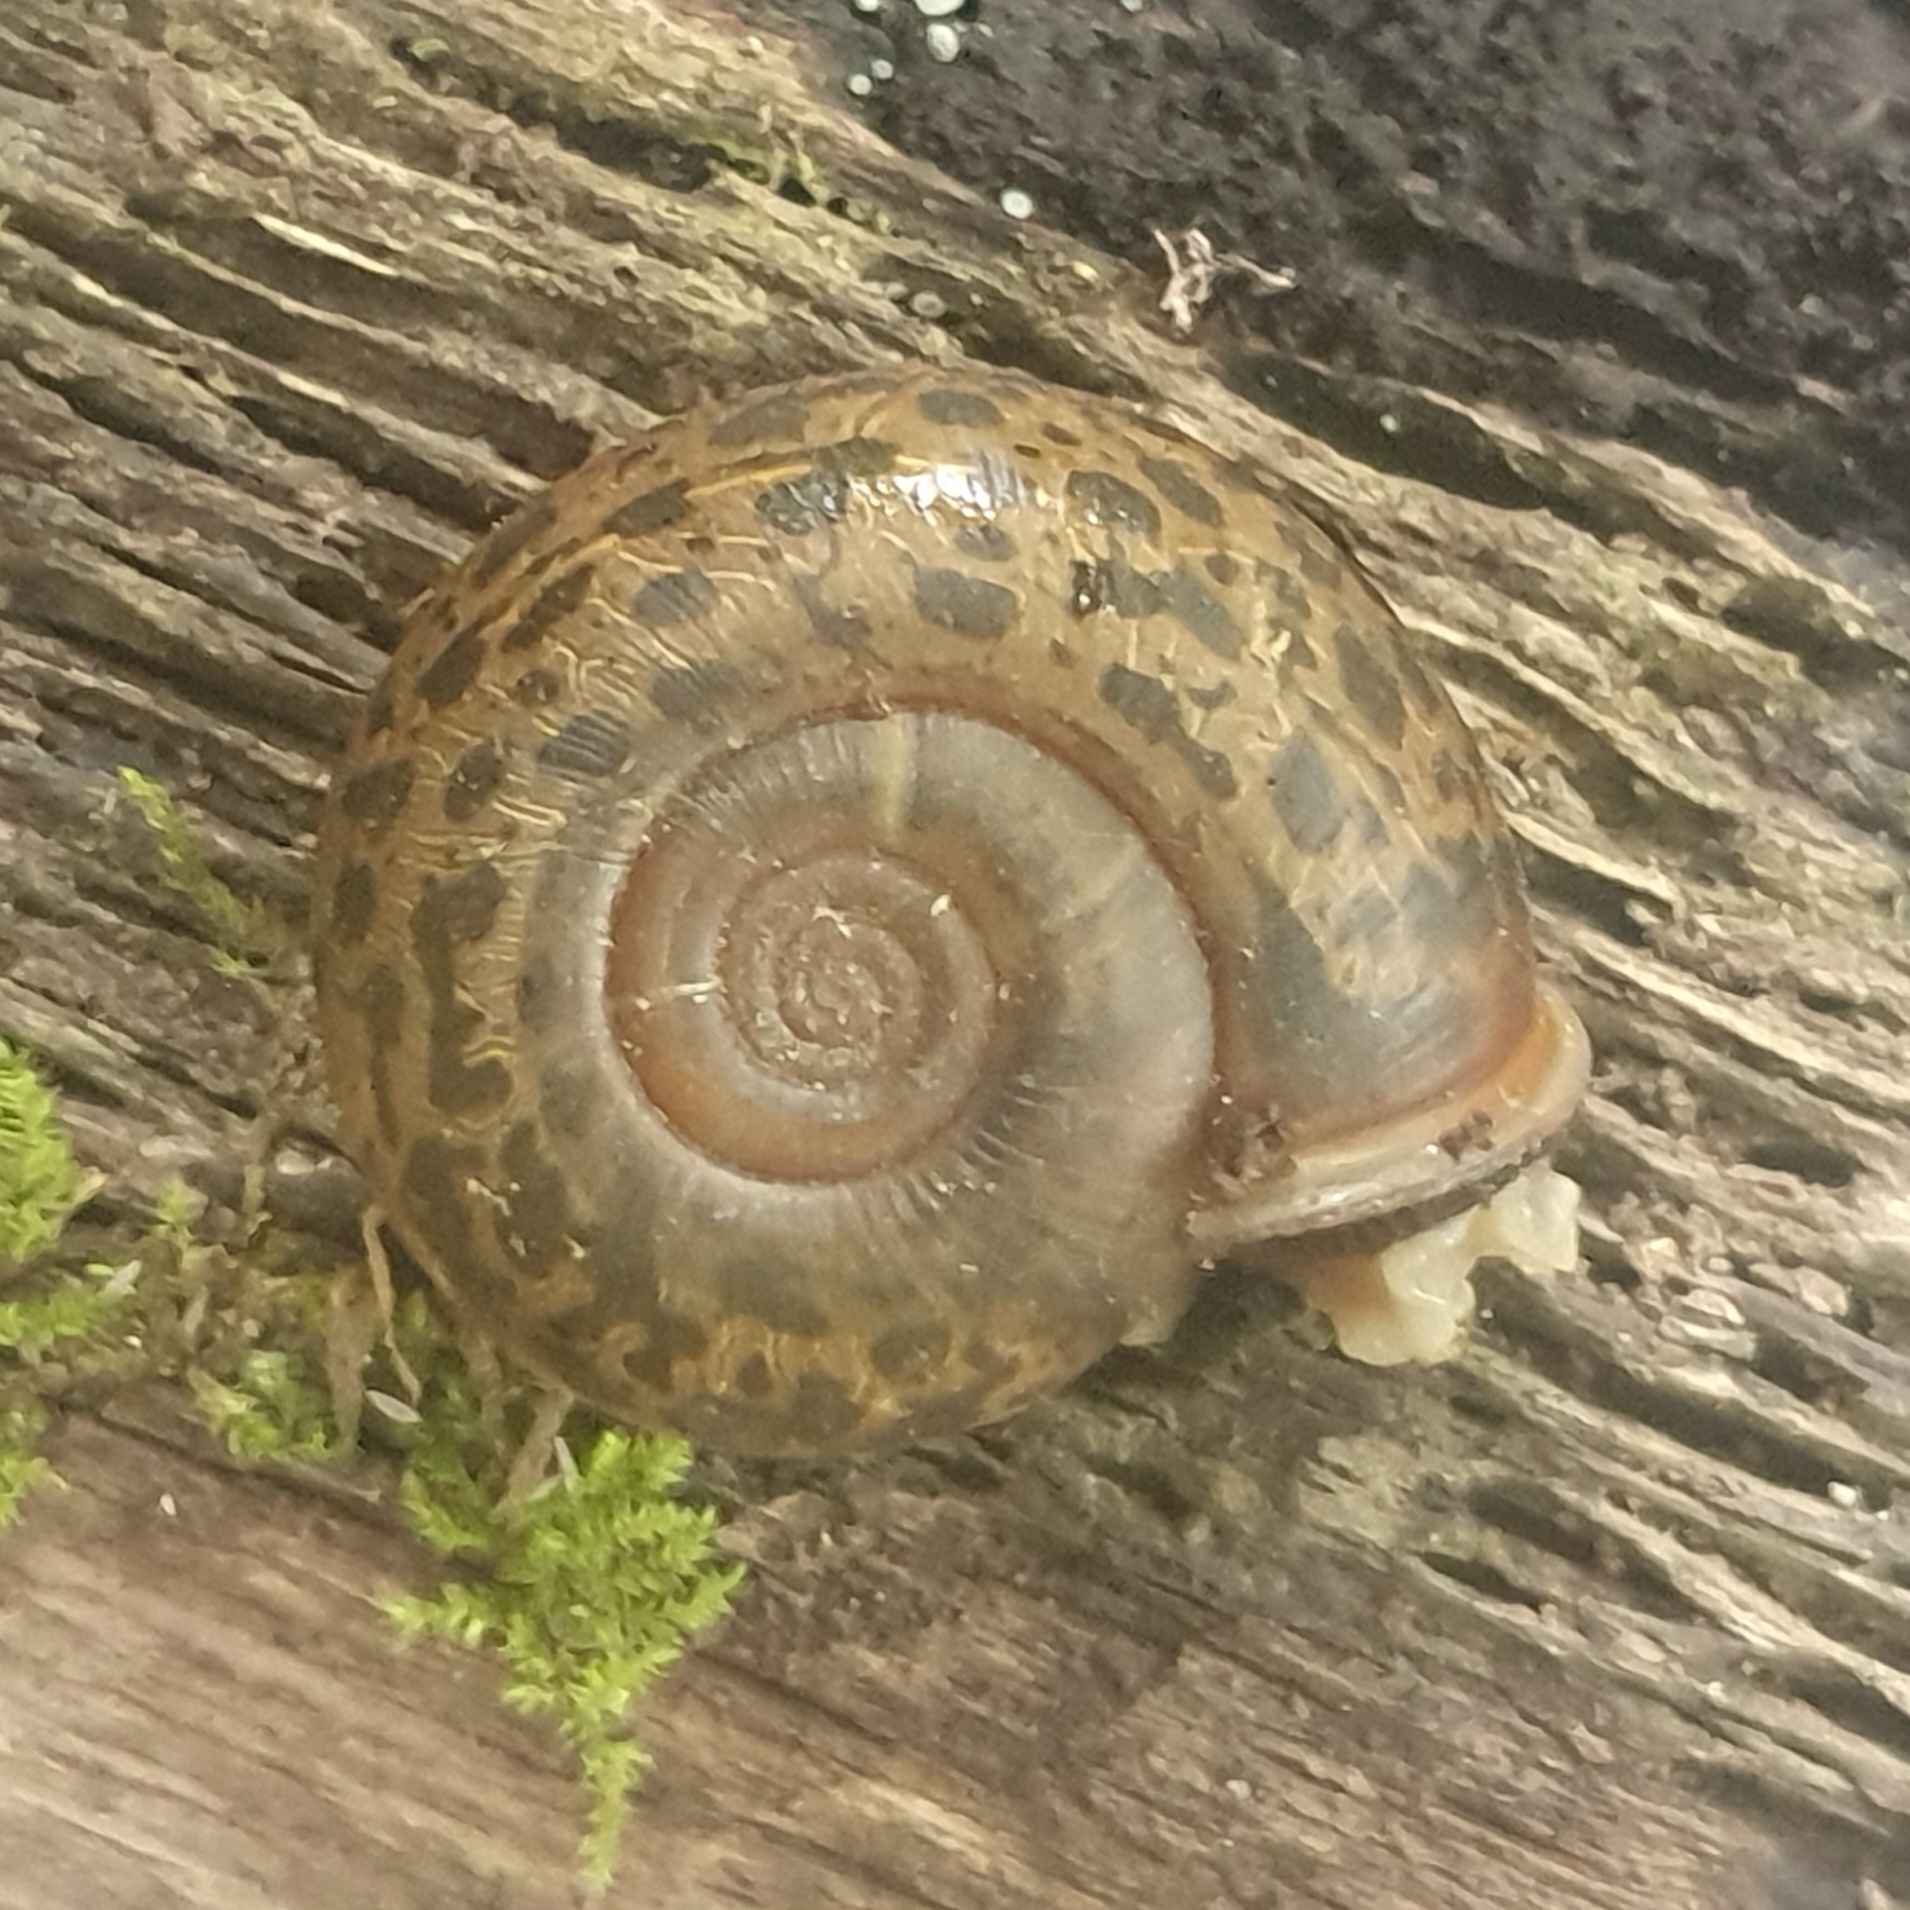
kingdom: Animalia
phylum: Mollusca
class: Gastropoda
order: Stylommatophora
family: Elonidae
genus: Elona
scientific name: Elona quimperiana
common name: Quimper snail
